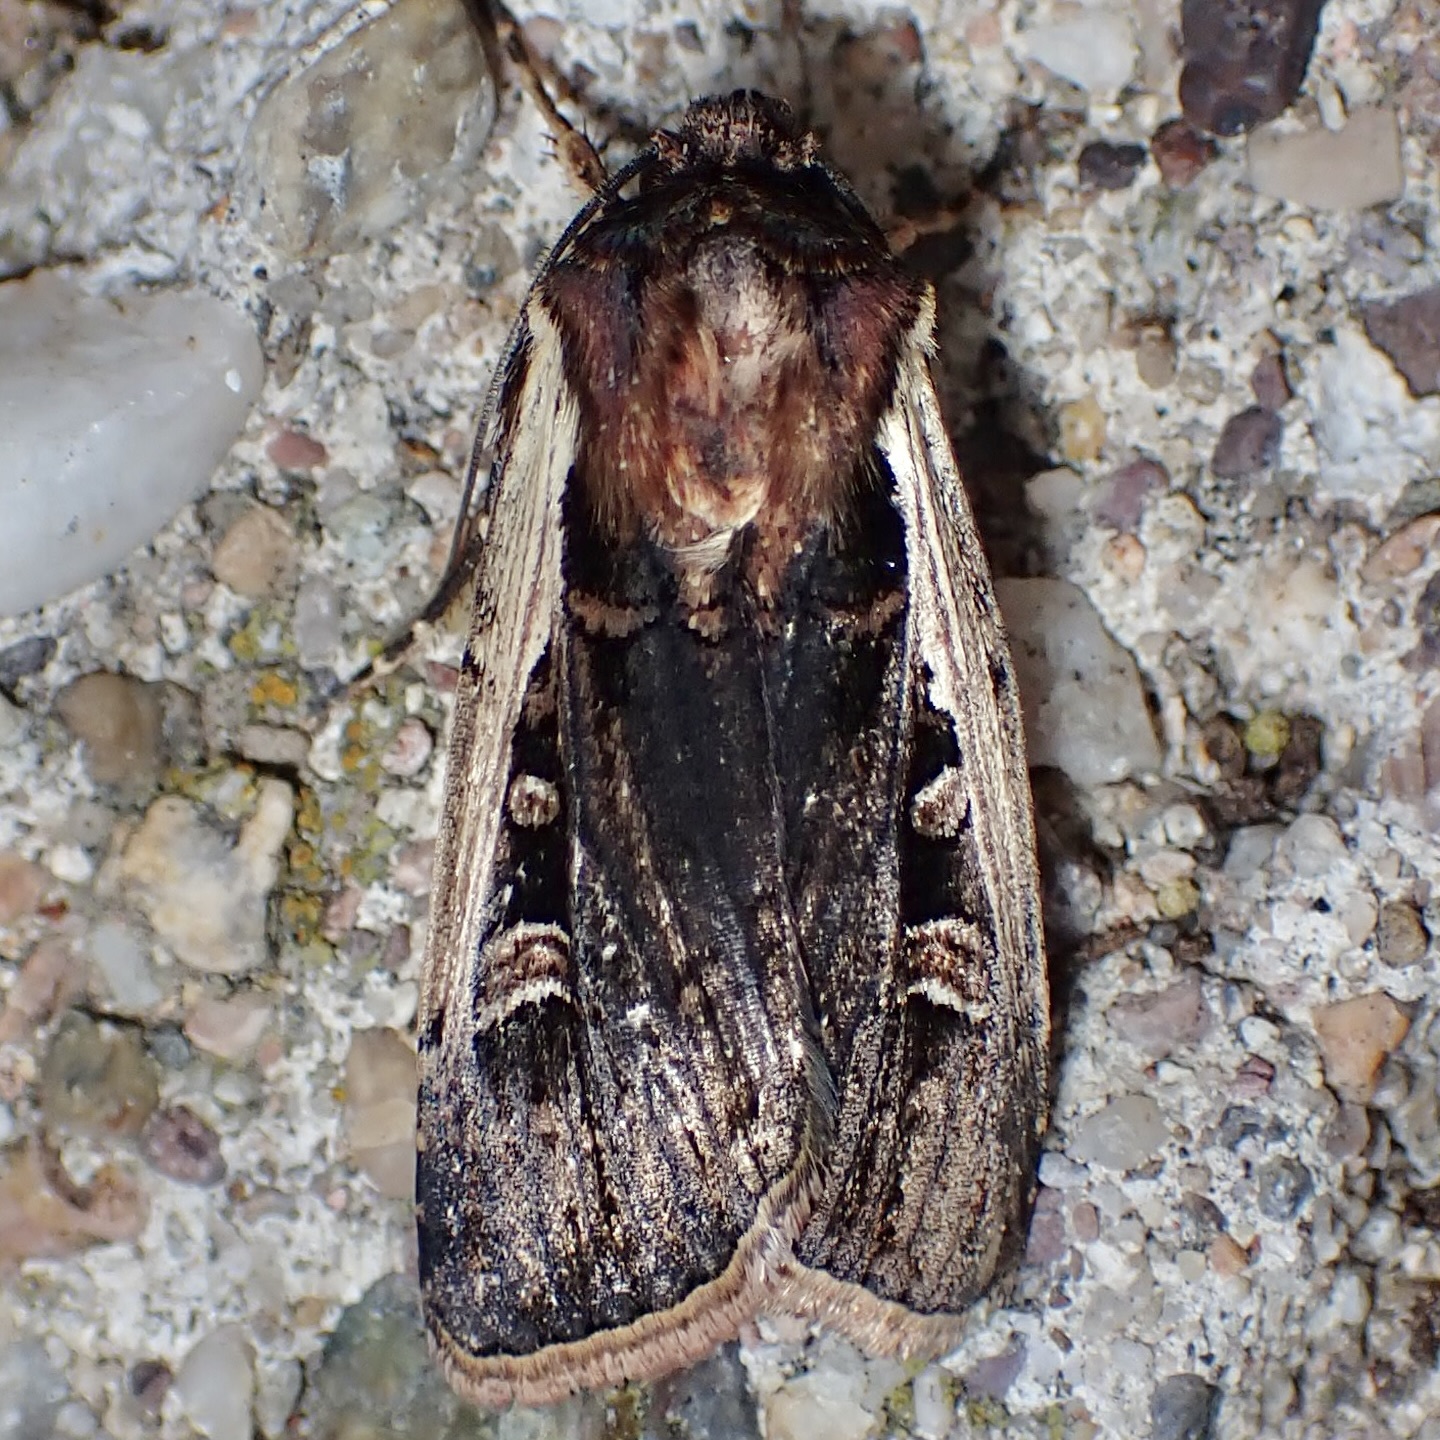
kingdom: Animalia
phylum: Arthropoda
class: Insecta
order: Lepidoptera
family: Noctuidae
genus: Striacosta
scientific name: Striacosta albicosta
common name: Western bean cutworm moth
